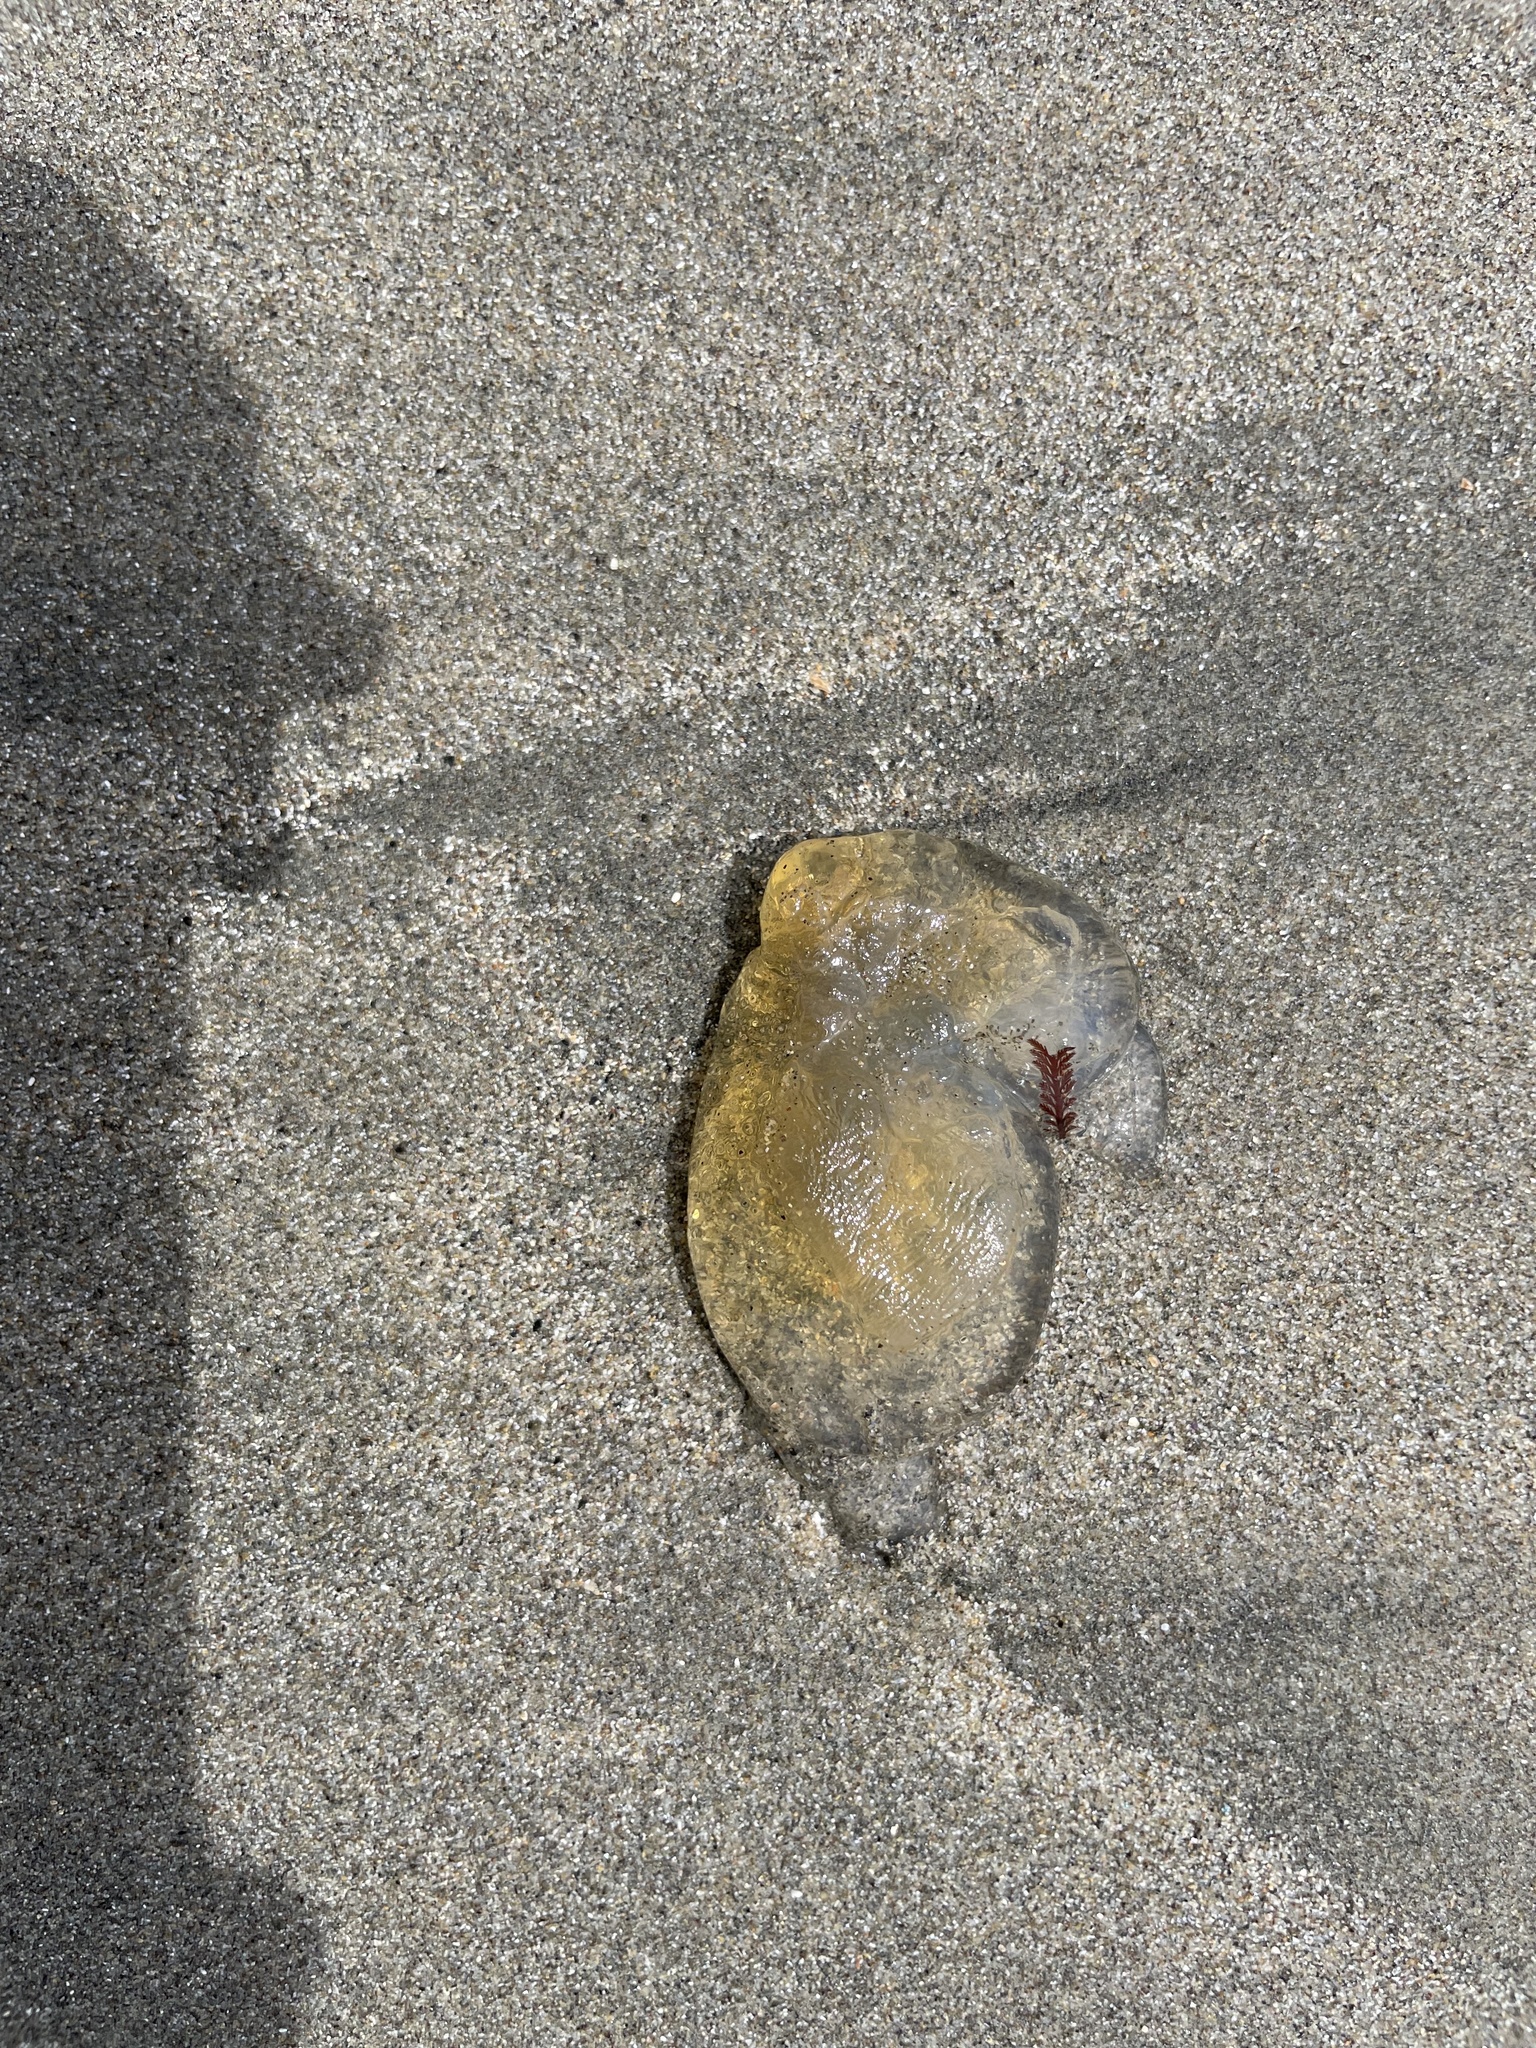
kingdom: Animalia
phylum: Cnidaria
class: Scyphozoa
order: Semaeostomeae
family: Pelagiidae
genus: Chrysaora
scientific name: Chrysaora fuscescens
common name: Sea nettle
